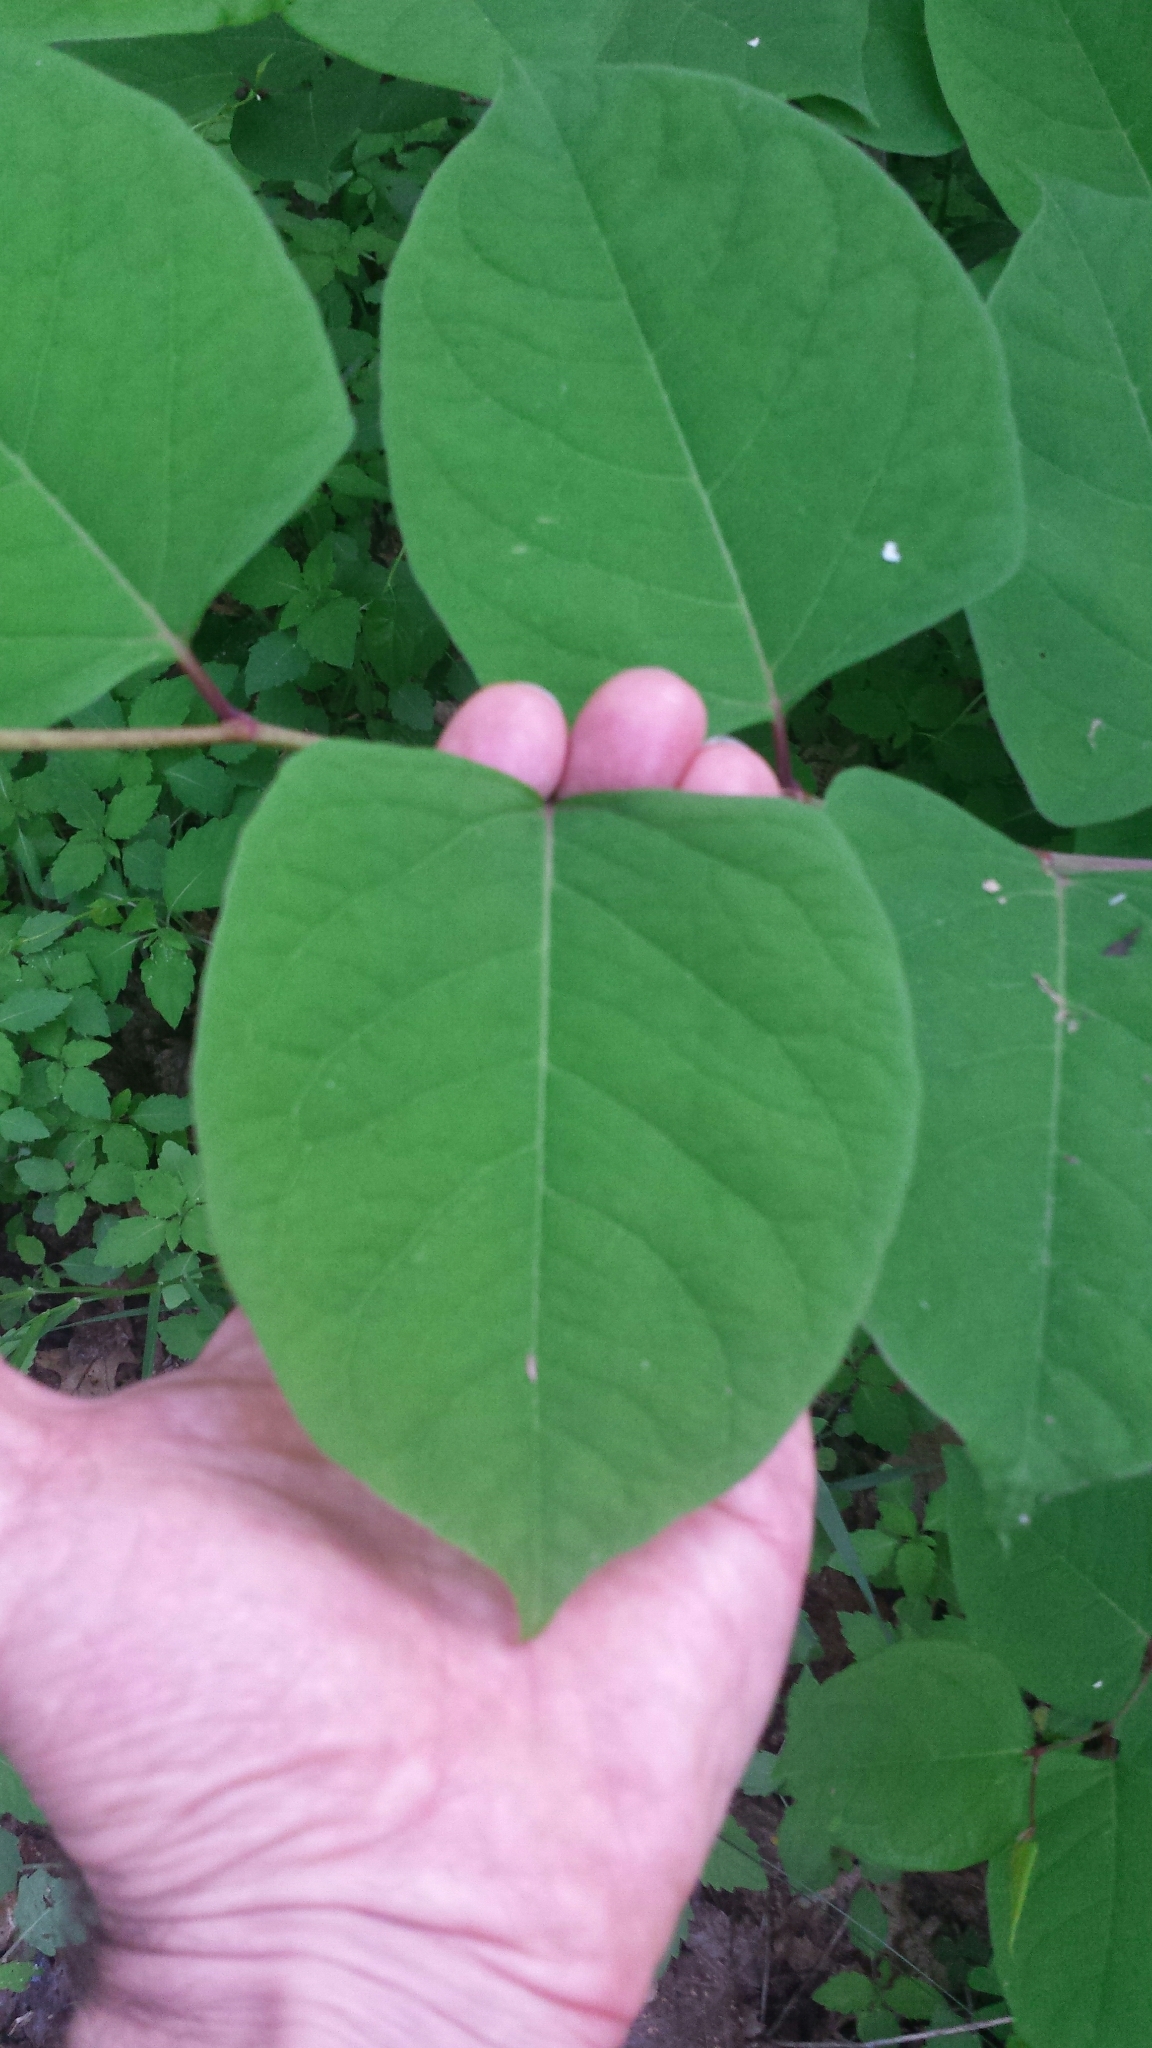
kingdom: Plantae
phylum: Tracheophyta
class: Magnoliopsida
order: Caryophyllales
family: Polygonaceae
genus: Reynoutria
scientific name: Reynoutria japonica
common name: Japanese knotweed
